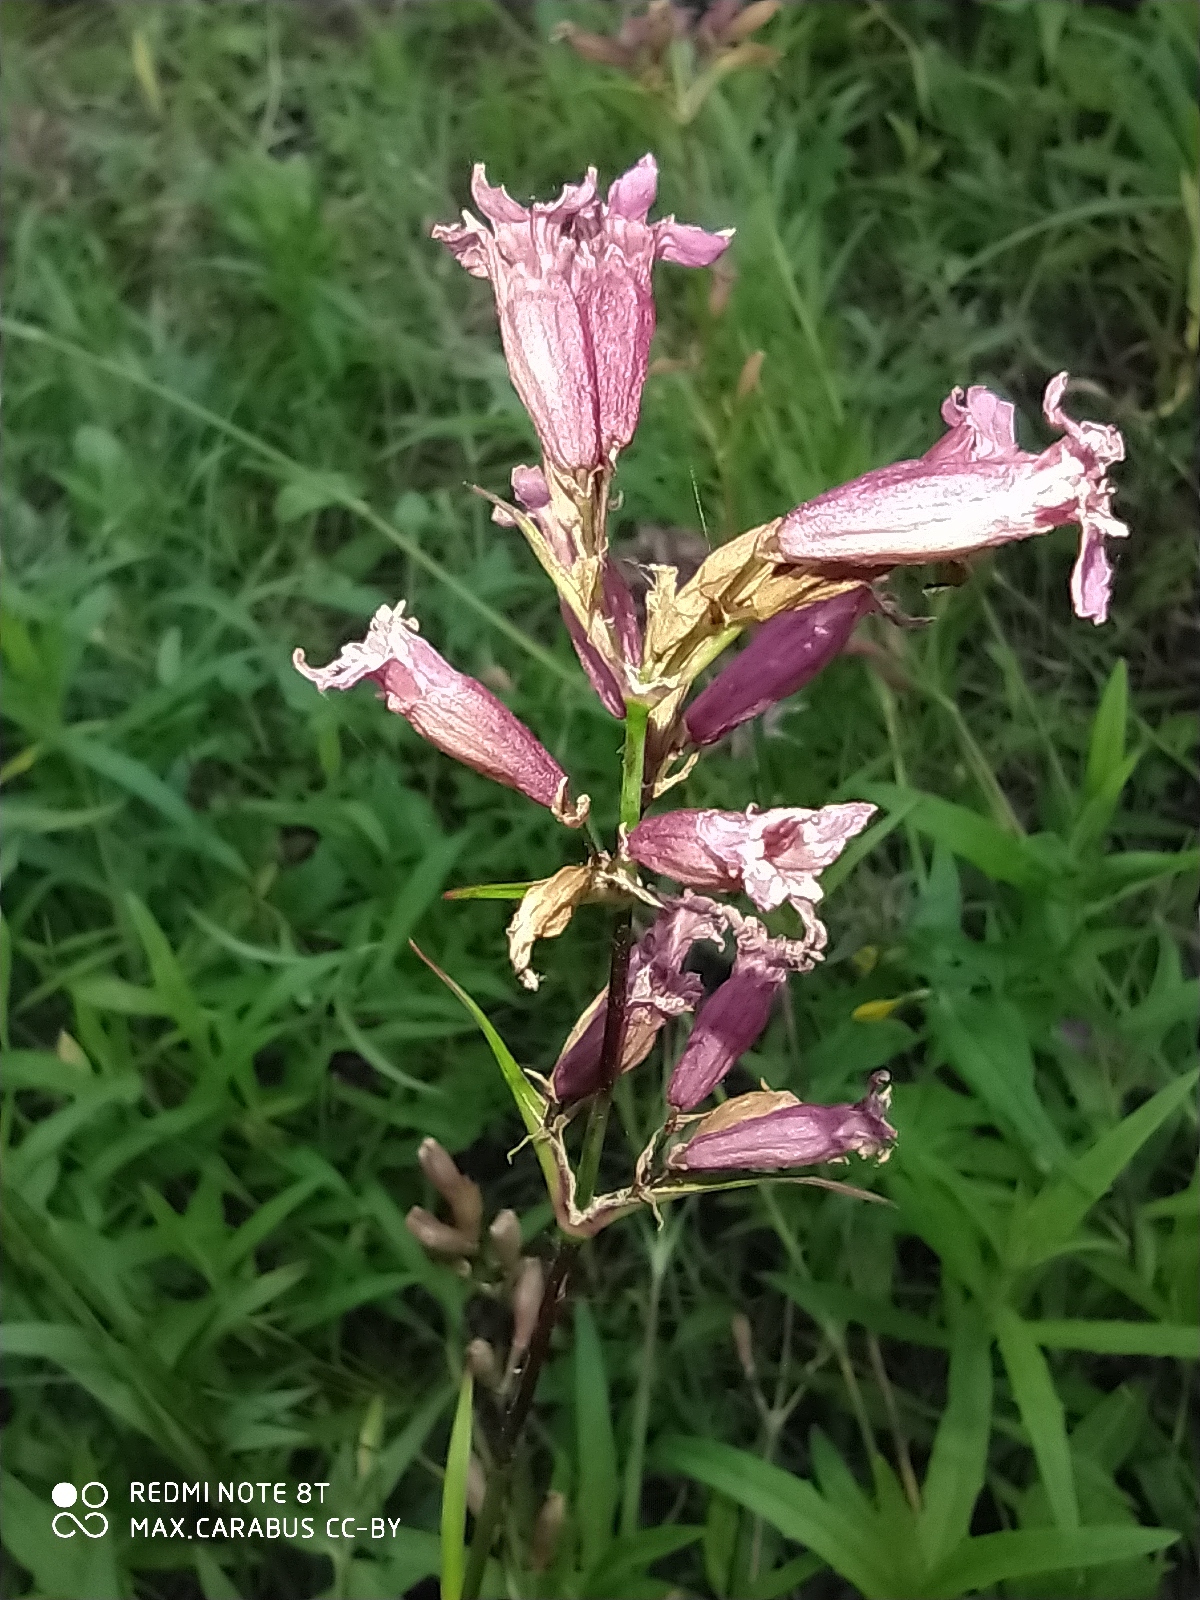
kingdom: Plantae
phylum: Tracheophyta
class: Magnoliopsida
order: Caryophyllales
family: Caryophyllaceae
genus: Viscaria
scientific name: Viscaria vulgaris
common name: Clammy campion
